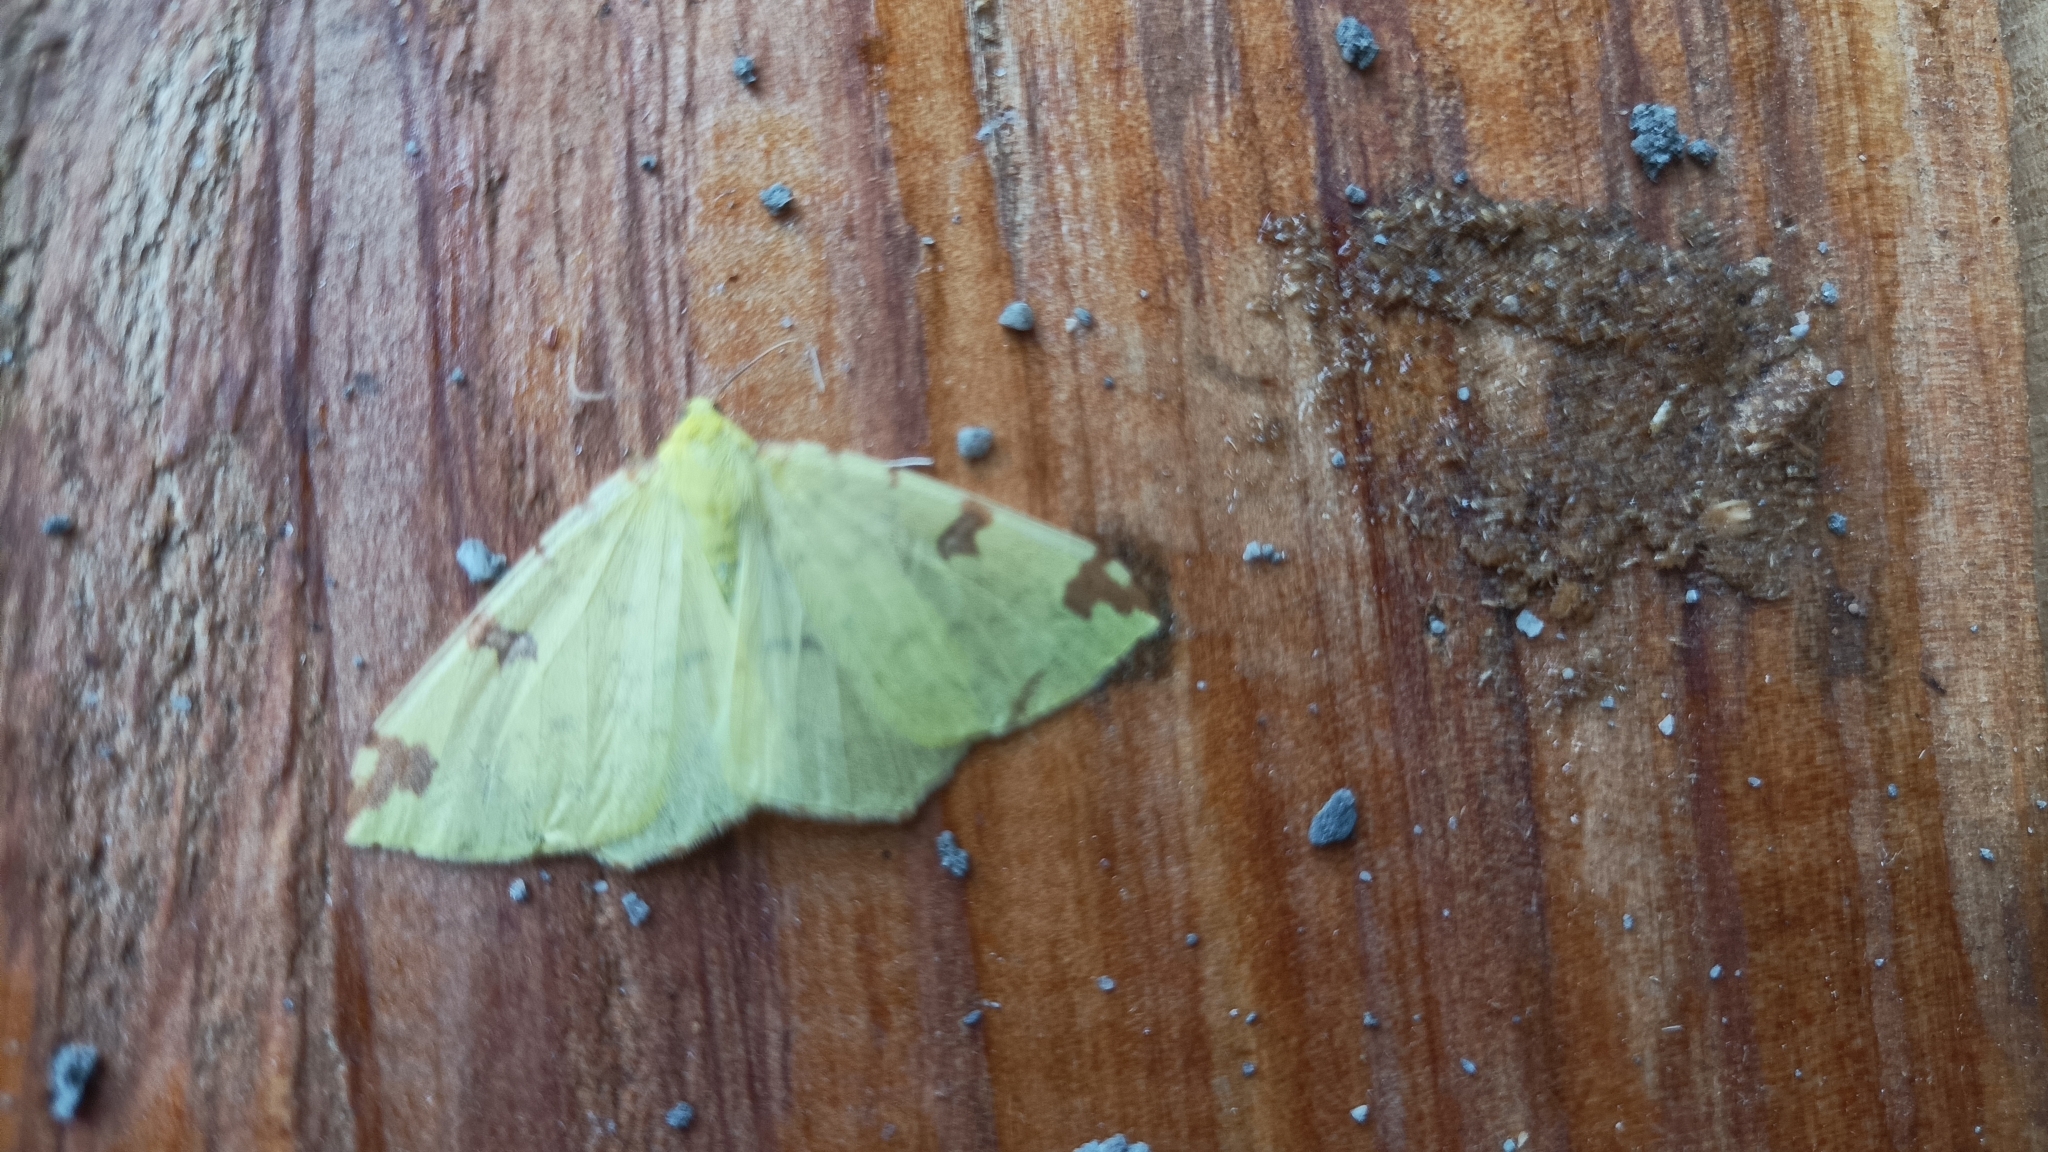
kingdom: Animalia
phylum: Arthropoda
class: Insecta
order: Lepidoptera
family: Geometridae
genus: Opisthograptis
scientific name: Opisthograptis mimulina
